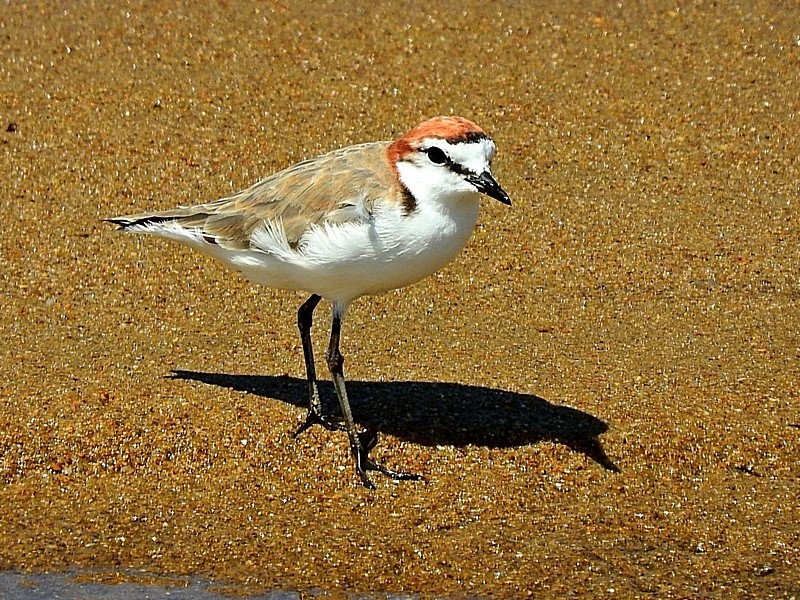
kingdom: Animalia
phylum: Chordata
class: Aves
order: Charadriiformes
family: Charadriidae
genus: Anarhynchus
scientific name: Anarhynchus
